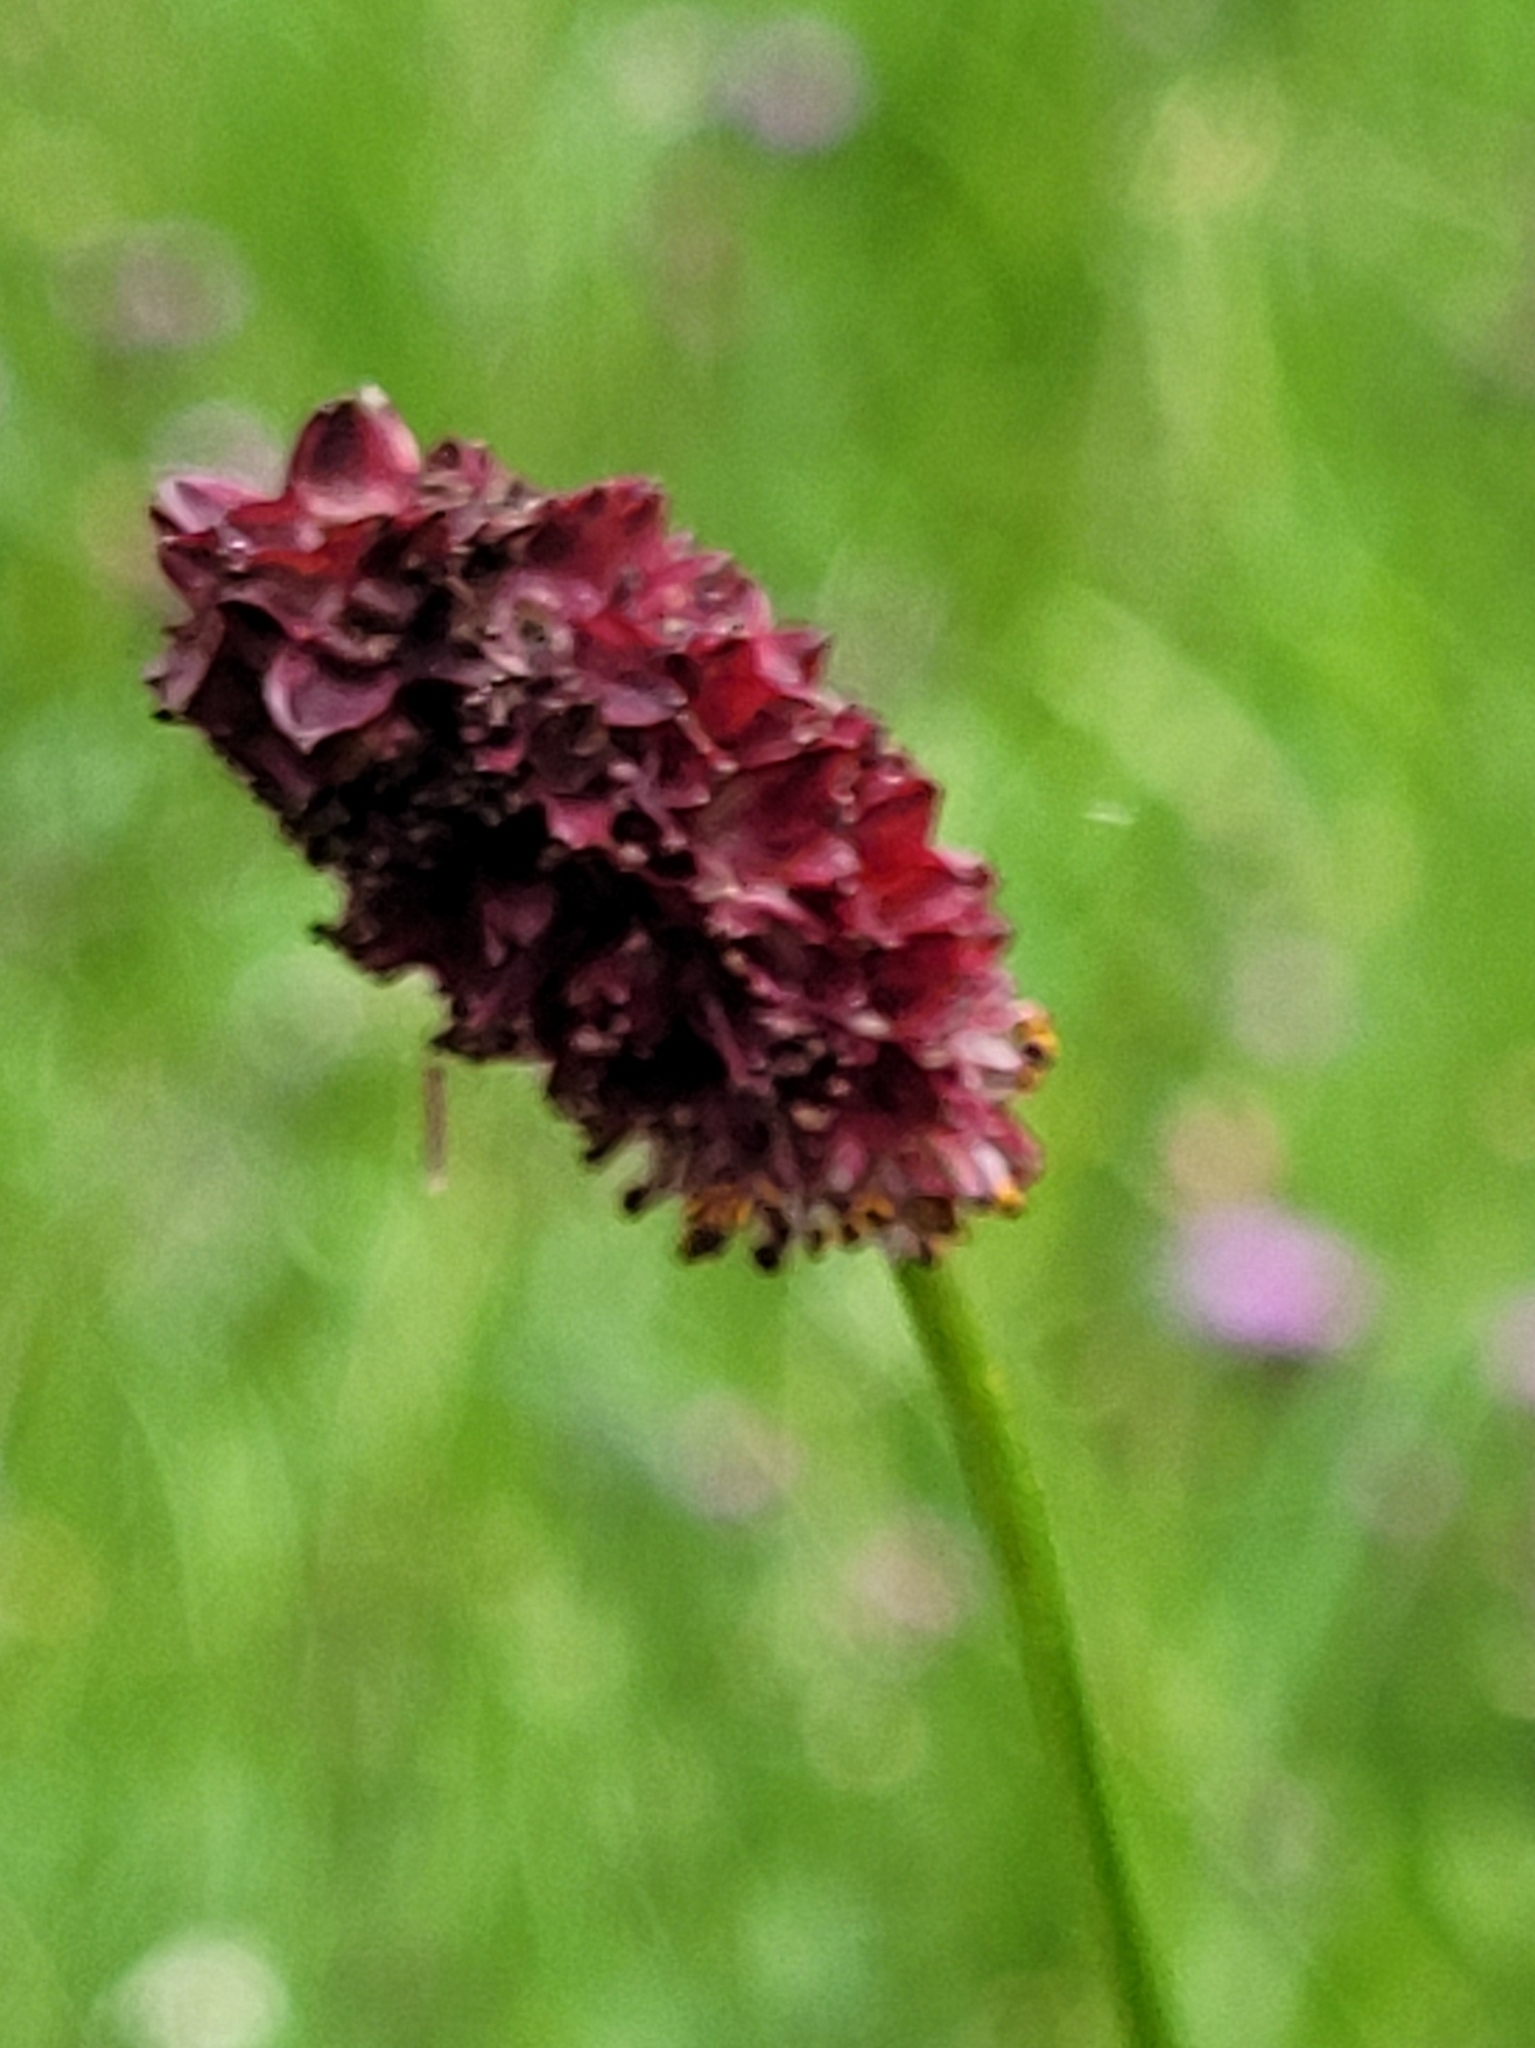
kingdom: Plantae
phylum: Tracheophyta
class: Magnoliopsida
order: Rosales
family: Rosaceae
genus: Sanguisorba
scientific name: Sanguisorba officinalis
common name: Great burnet
